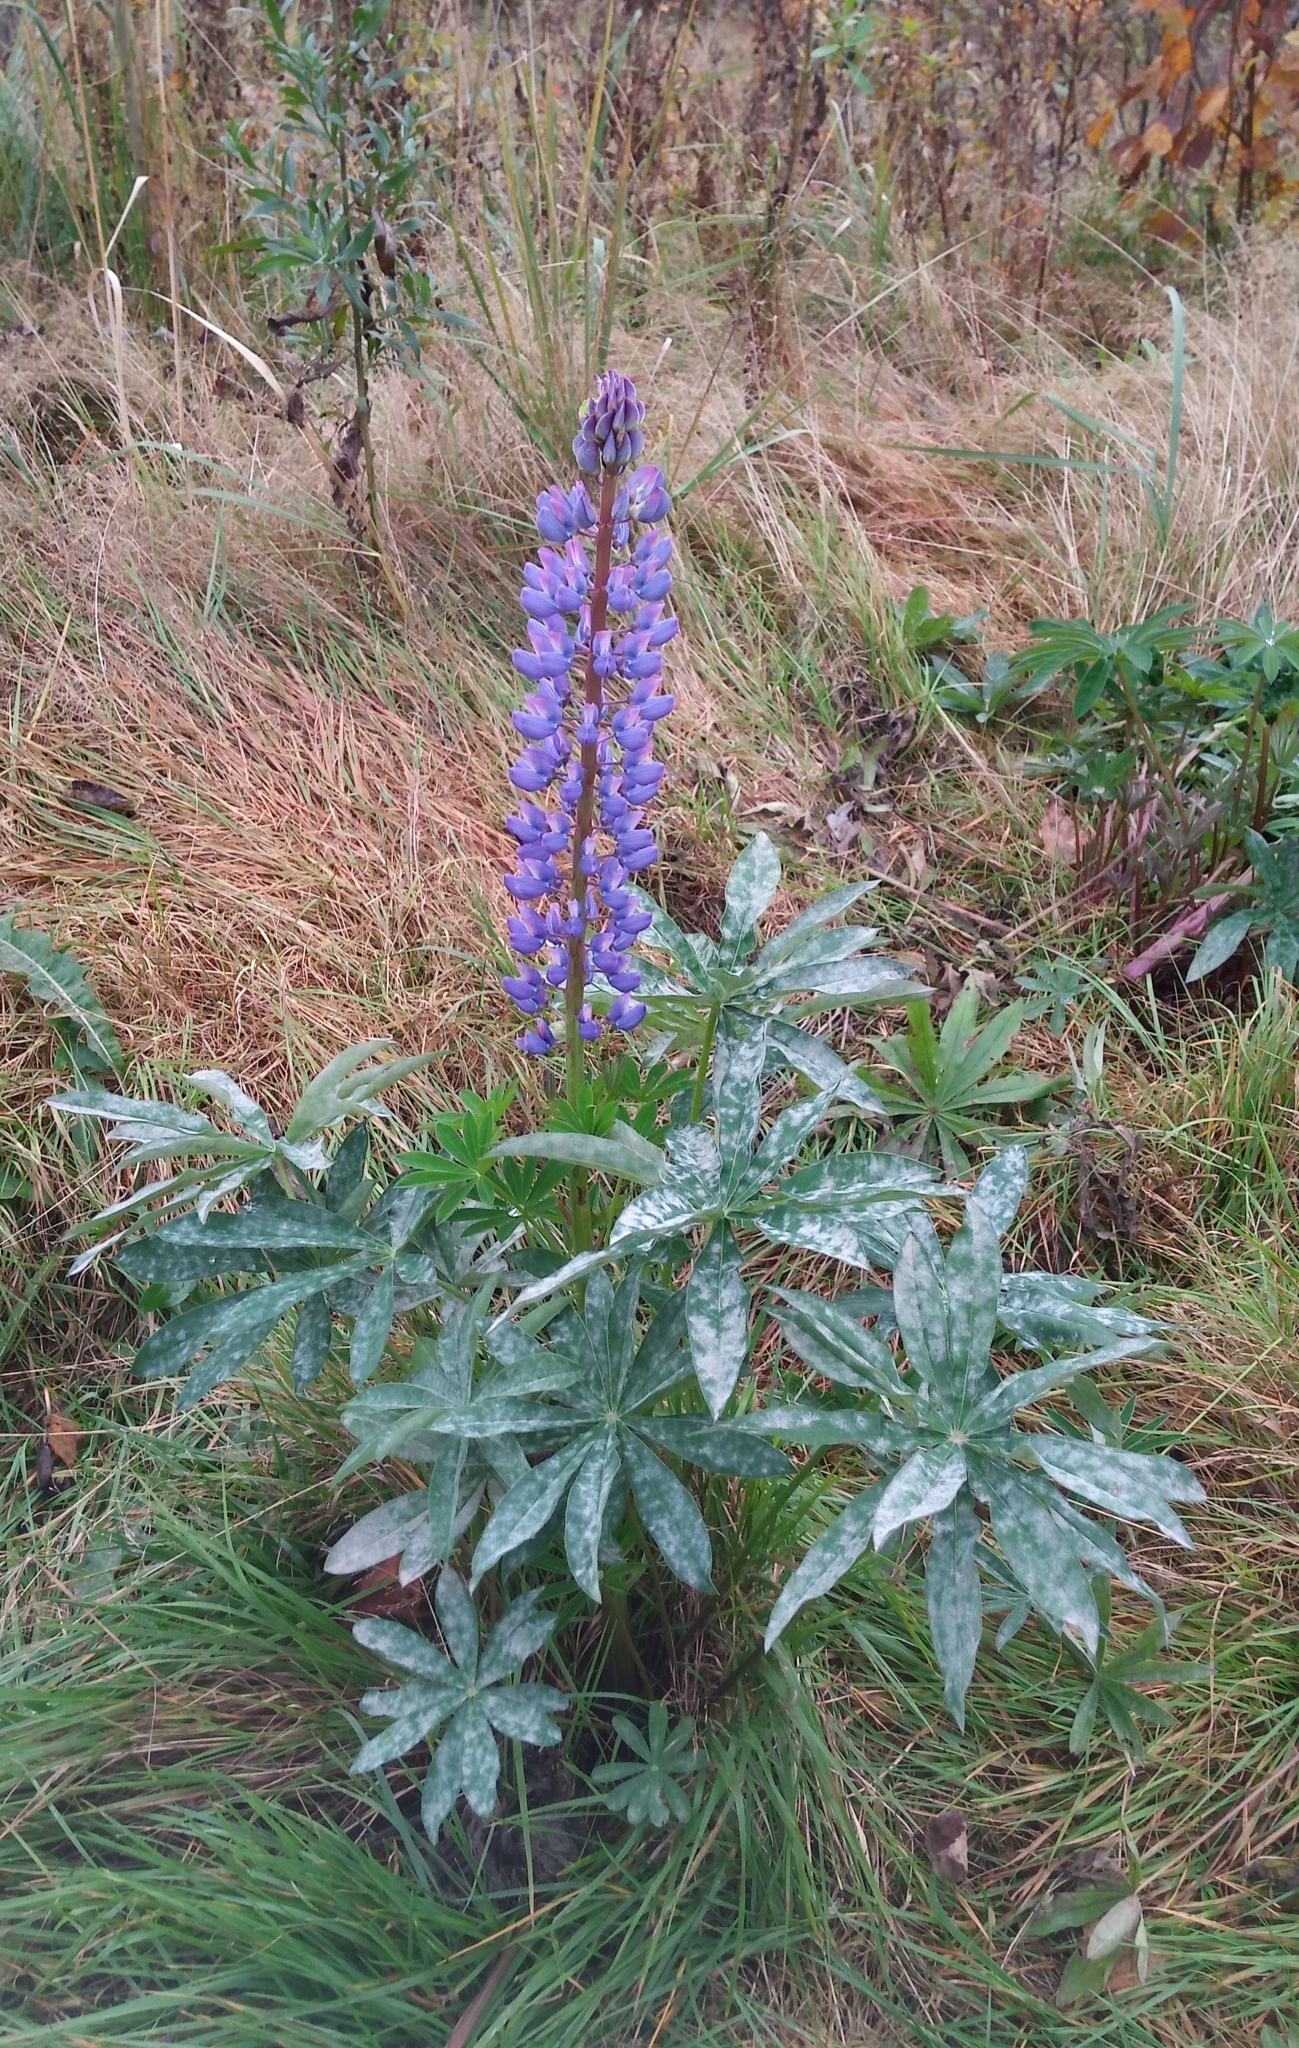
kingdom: Plantae
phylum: Tracheophyta
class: Magnoliopsida
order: Fabales
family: Fabaceae
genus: Lupinus
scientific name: Lupinus polyphyllus
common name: Garden lupin
